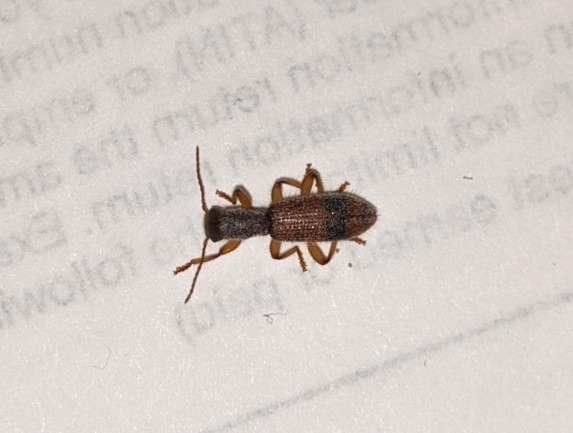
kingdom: Animalia
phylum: Arthropoda
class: Insecta
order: Coleoptera
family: Cleridae
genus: Cymatodera
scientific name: Cymatodera balteata
